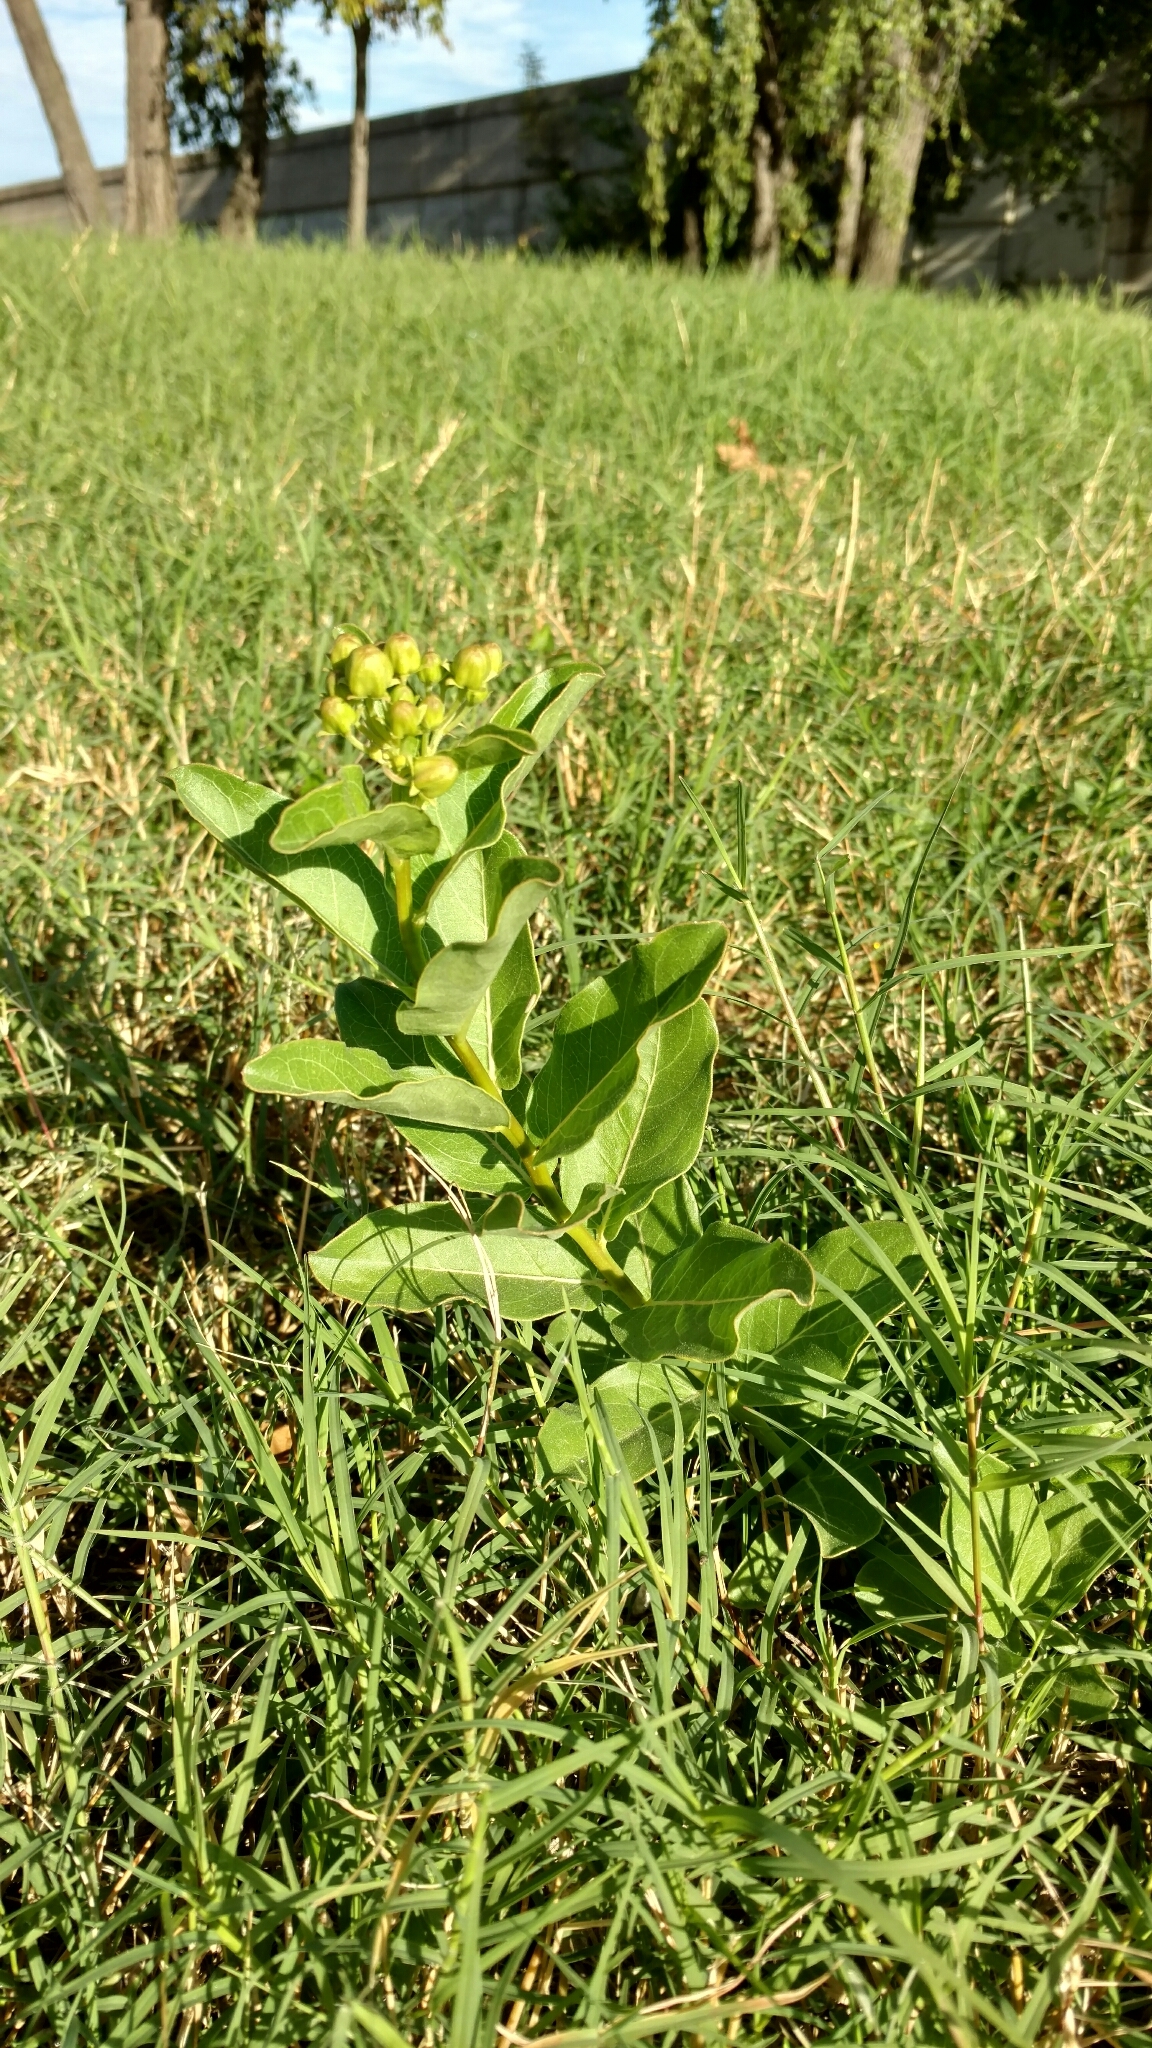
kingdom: Plantae
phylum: Tracheophyta
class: Magnoliopsida
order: Gentianales
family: Apocynaceae
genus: Asclepias
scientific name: Asclepias viridis
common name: Antelope-horns
